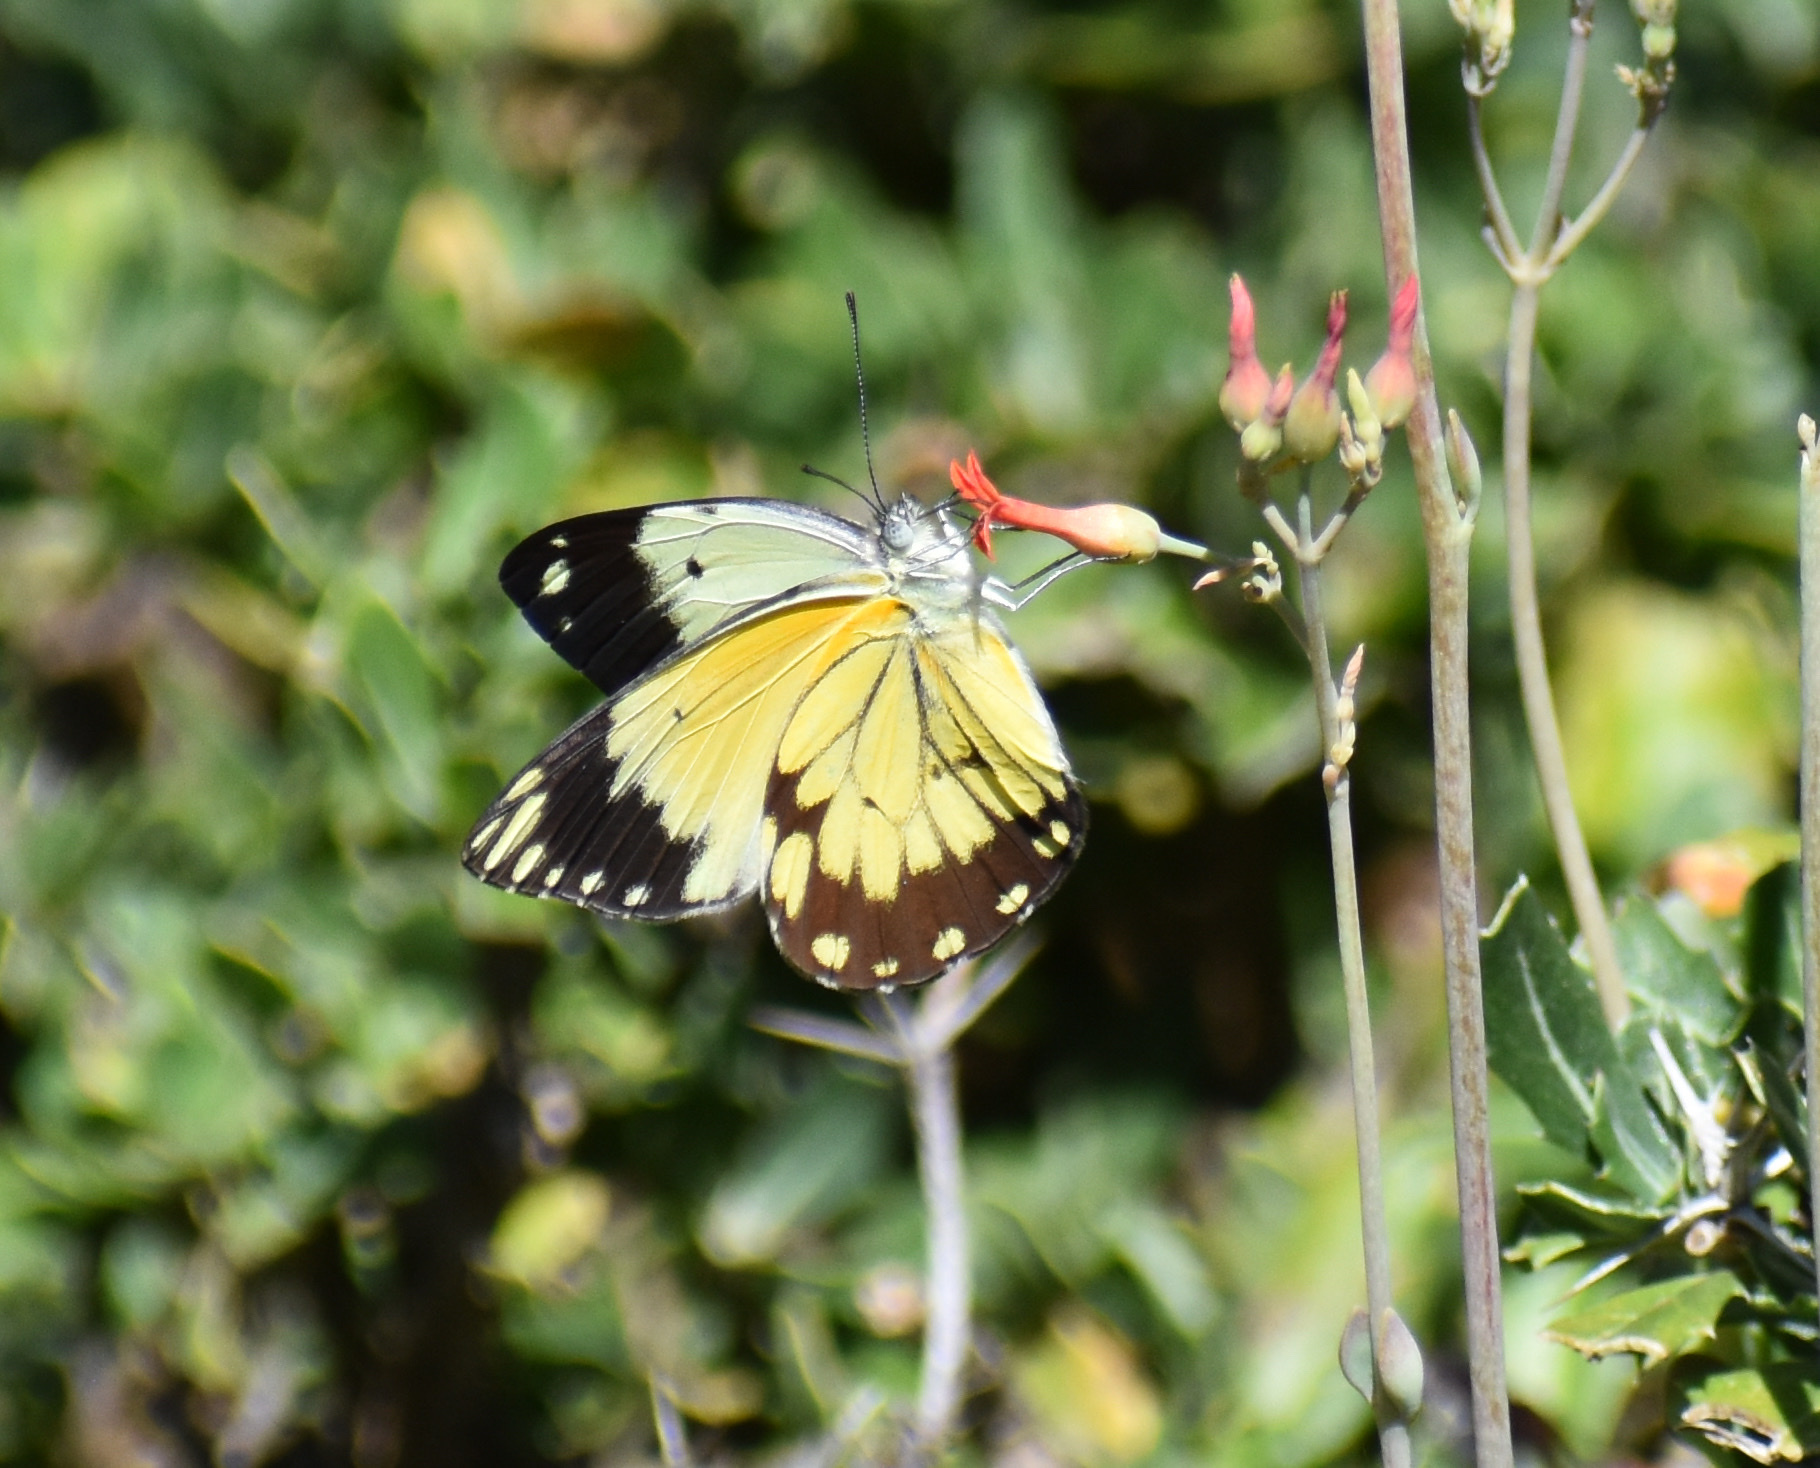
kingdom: Animalia
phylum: Arthropoda
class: Insecta
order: Lepidoptera
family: Pieridae
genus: Belenois
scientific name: Belenois creona
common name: African caper white
